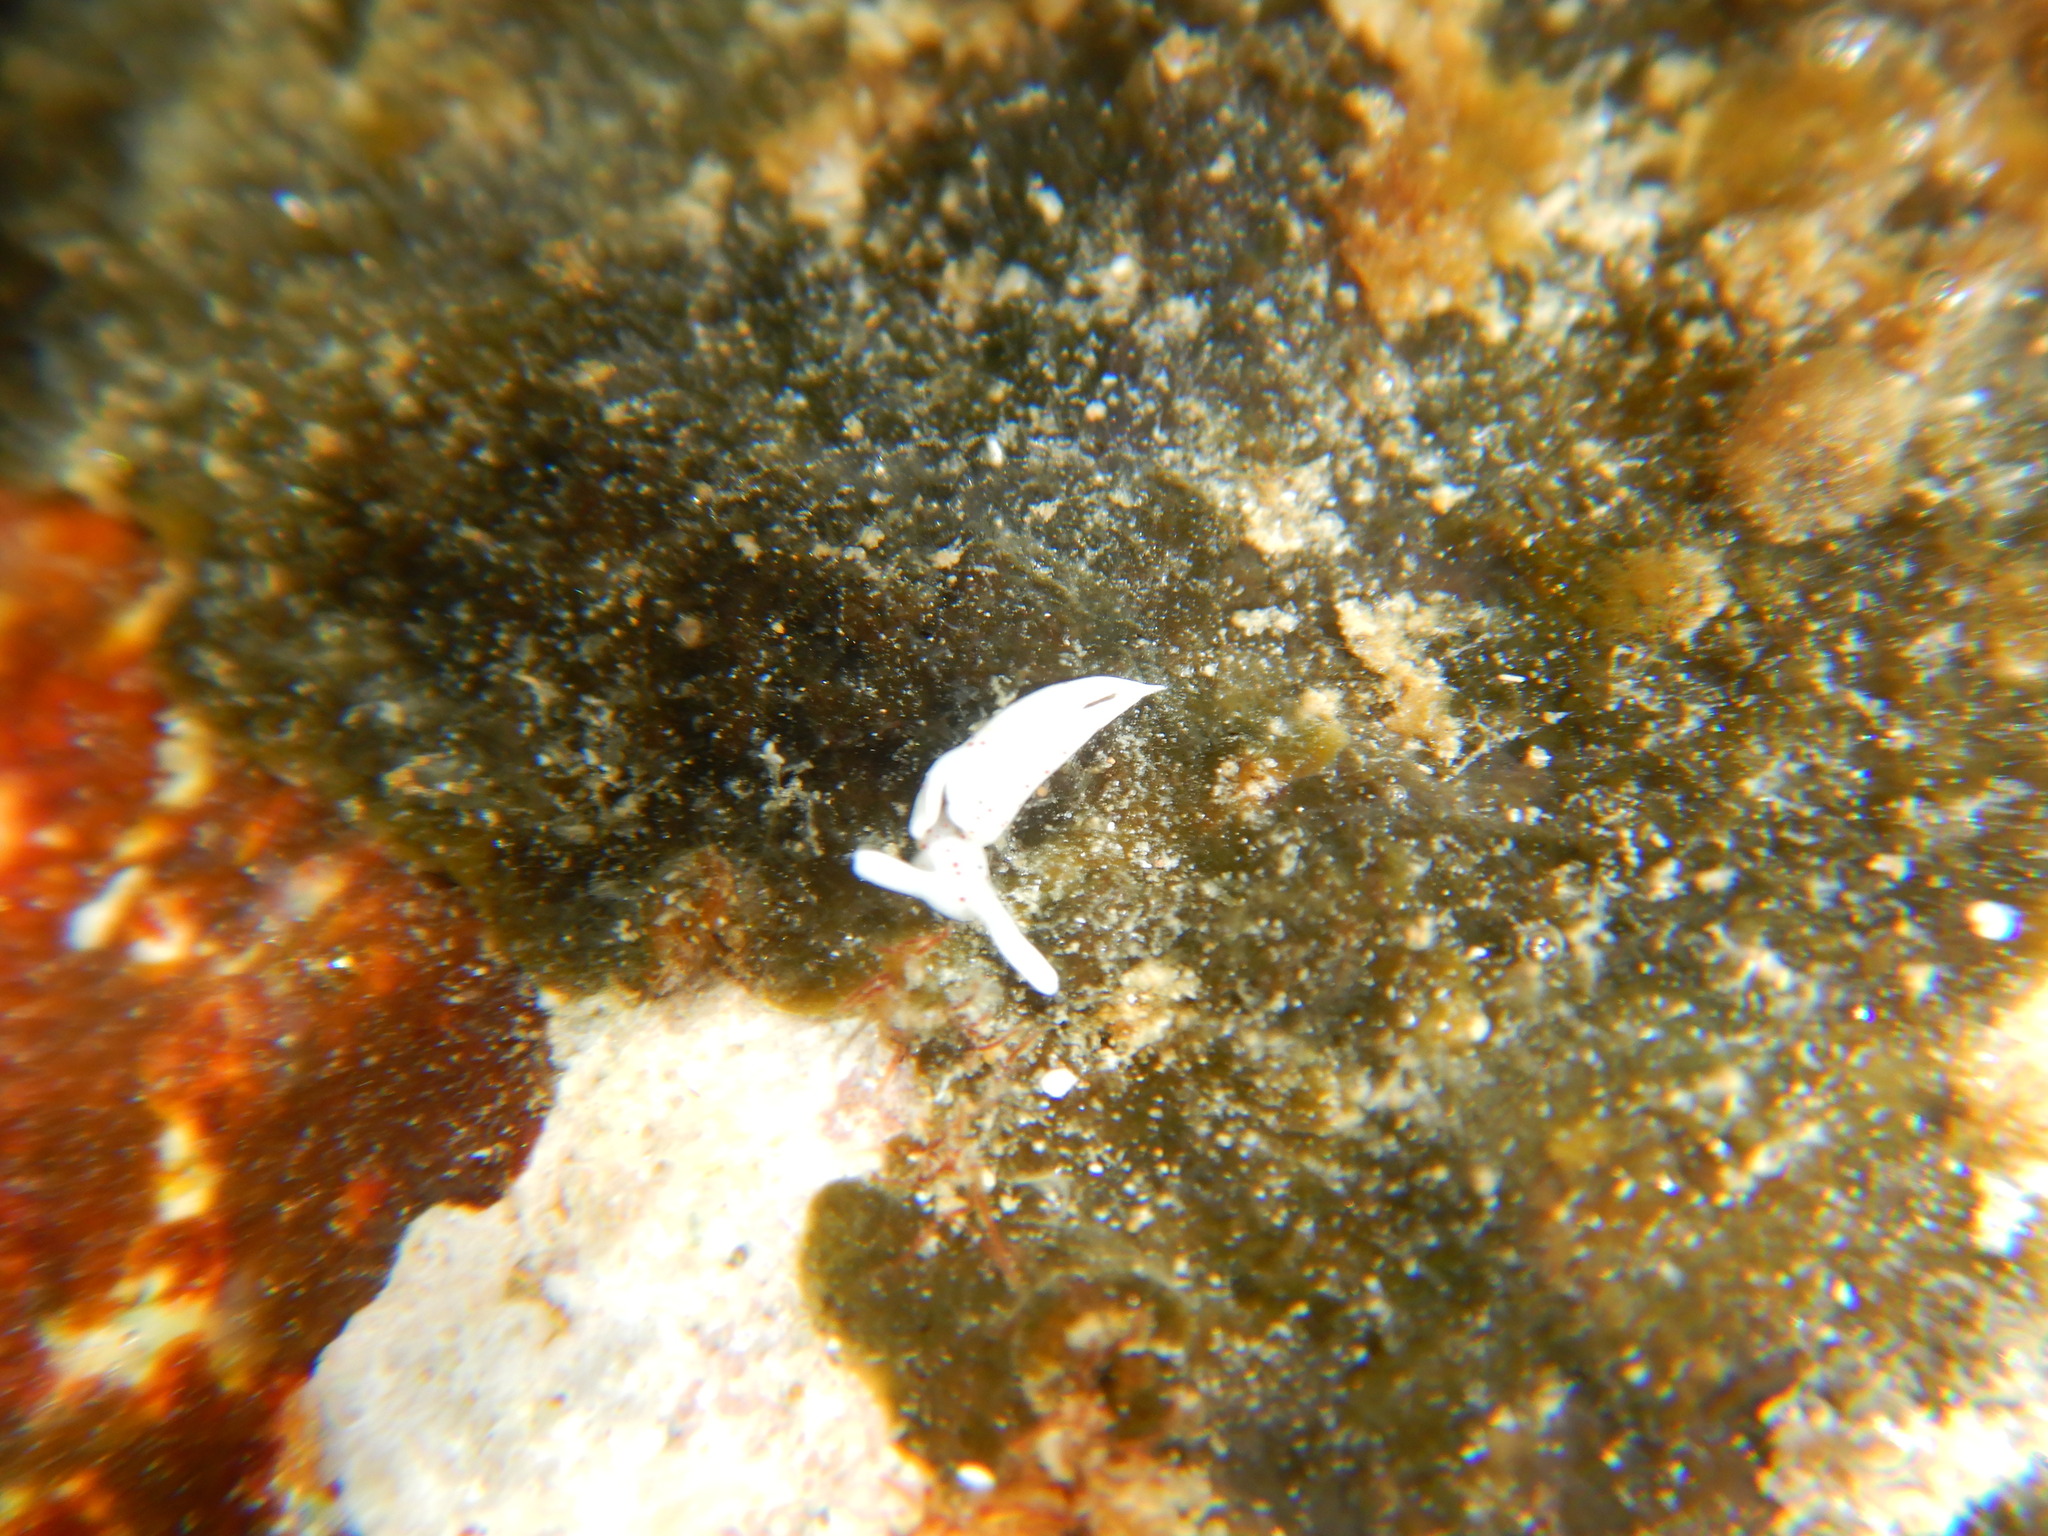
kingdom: Animalia
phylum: Mollusca
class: Gastropoda
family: Plakobranchidae
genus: Elysia
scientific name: Elysia timida
